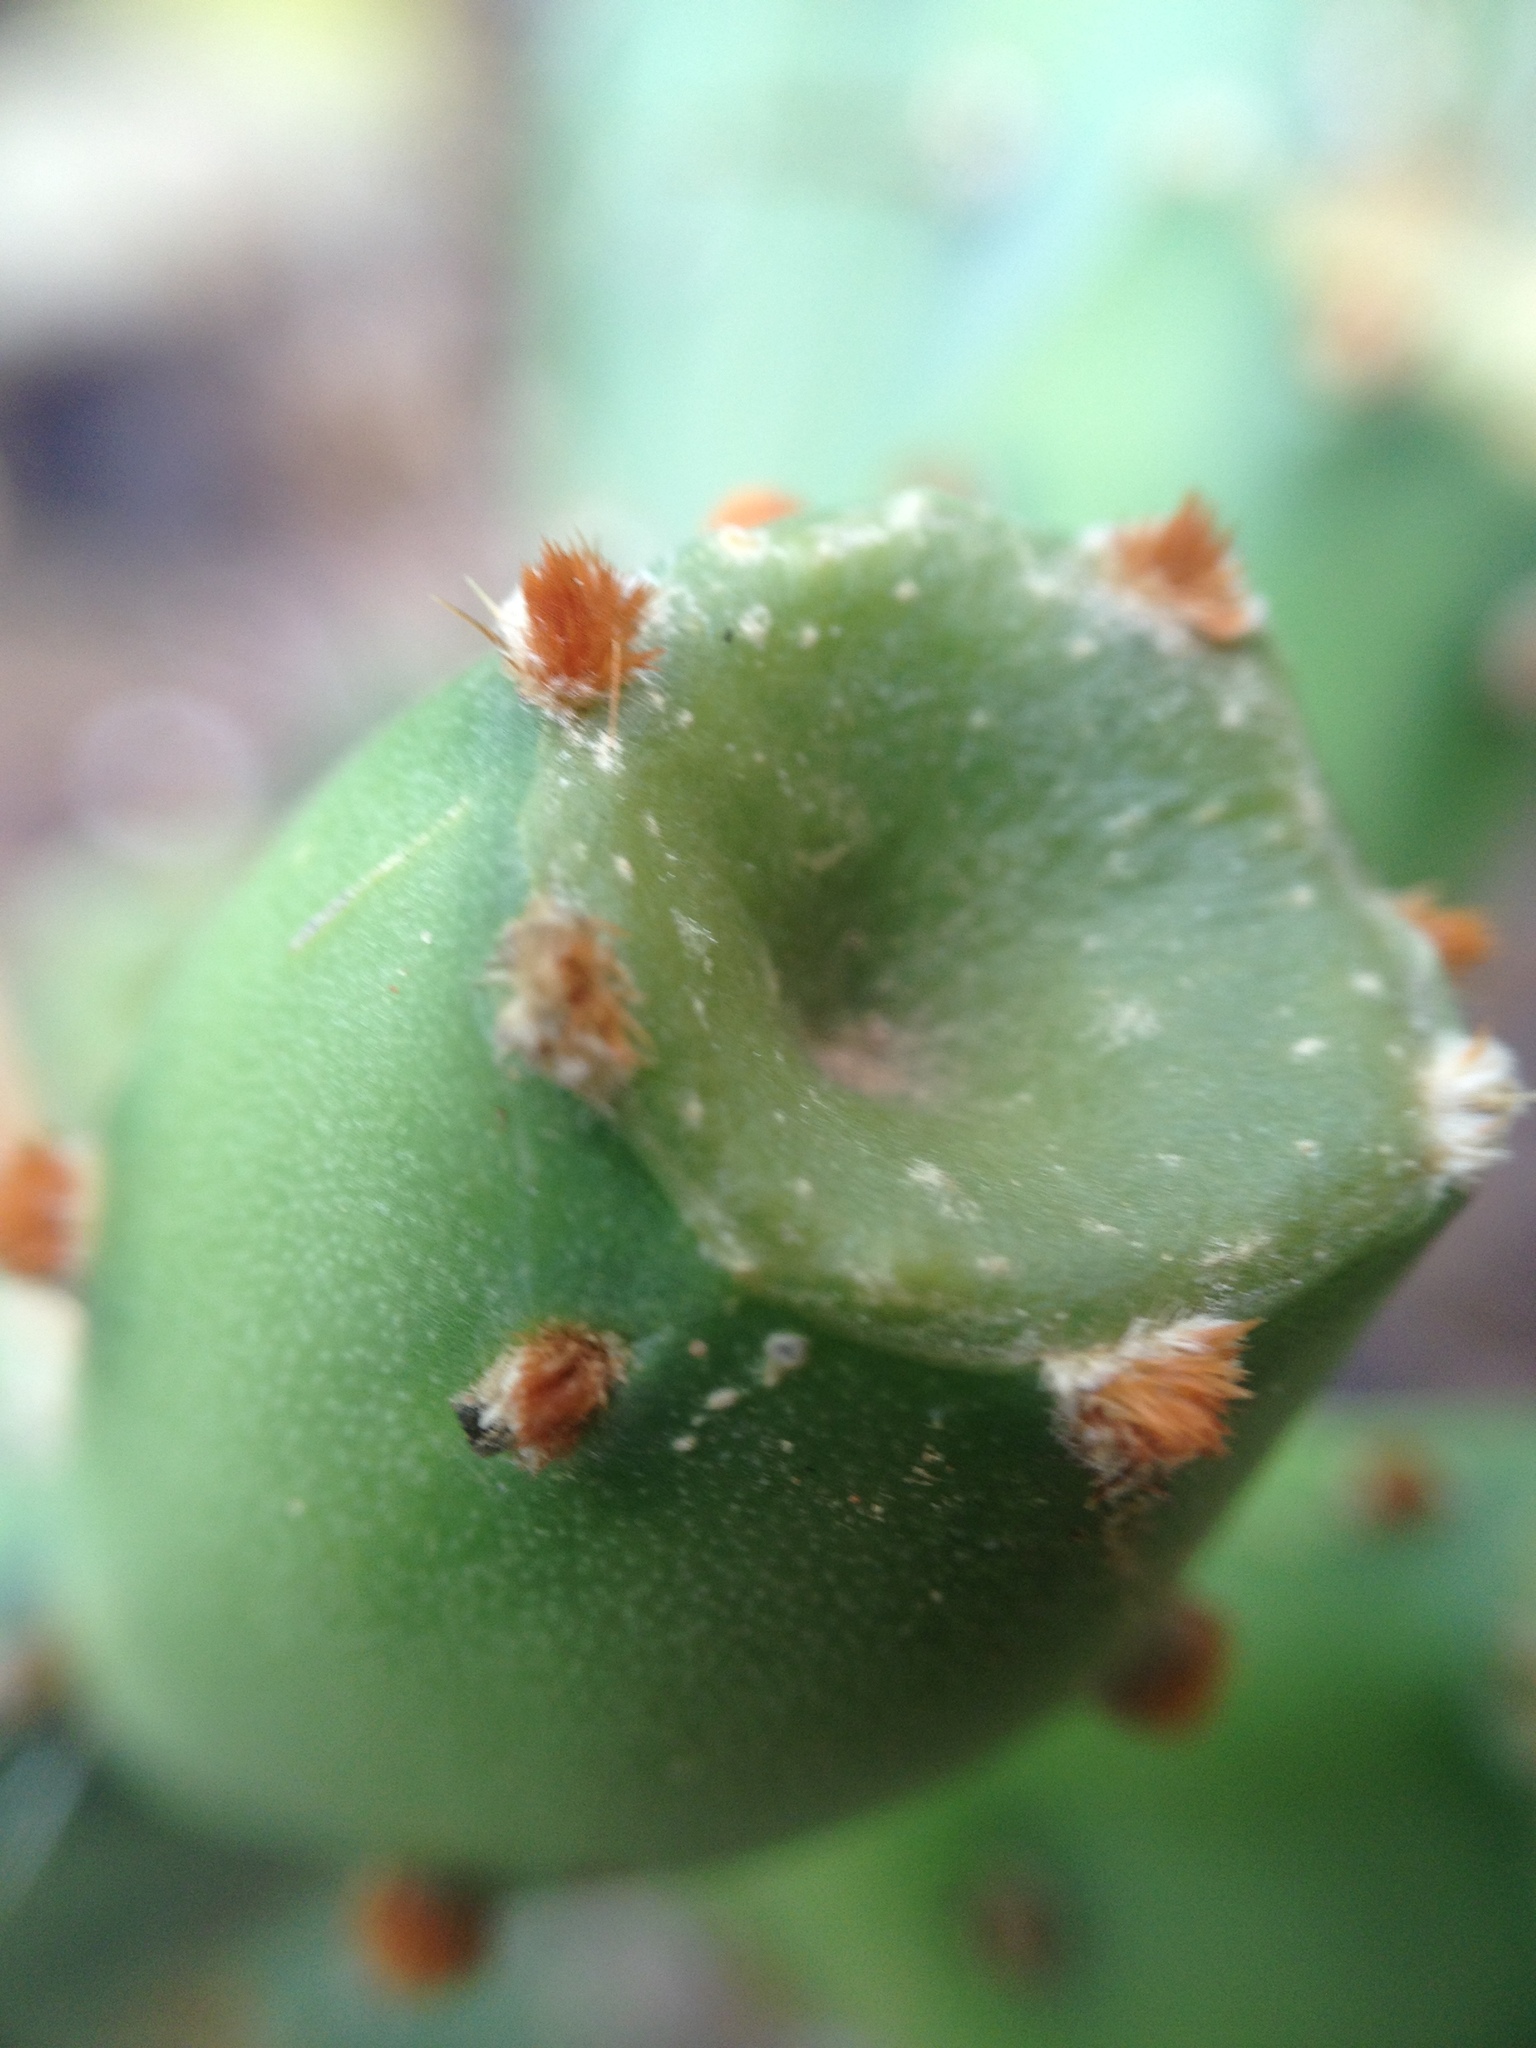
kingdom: Plantae
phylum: Tracheophyta
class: Magnoliopsida
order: Caryophyllales
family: Cactaceae
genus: Opuntia
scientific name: Opuntia anacantha
